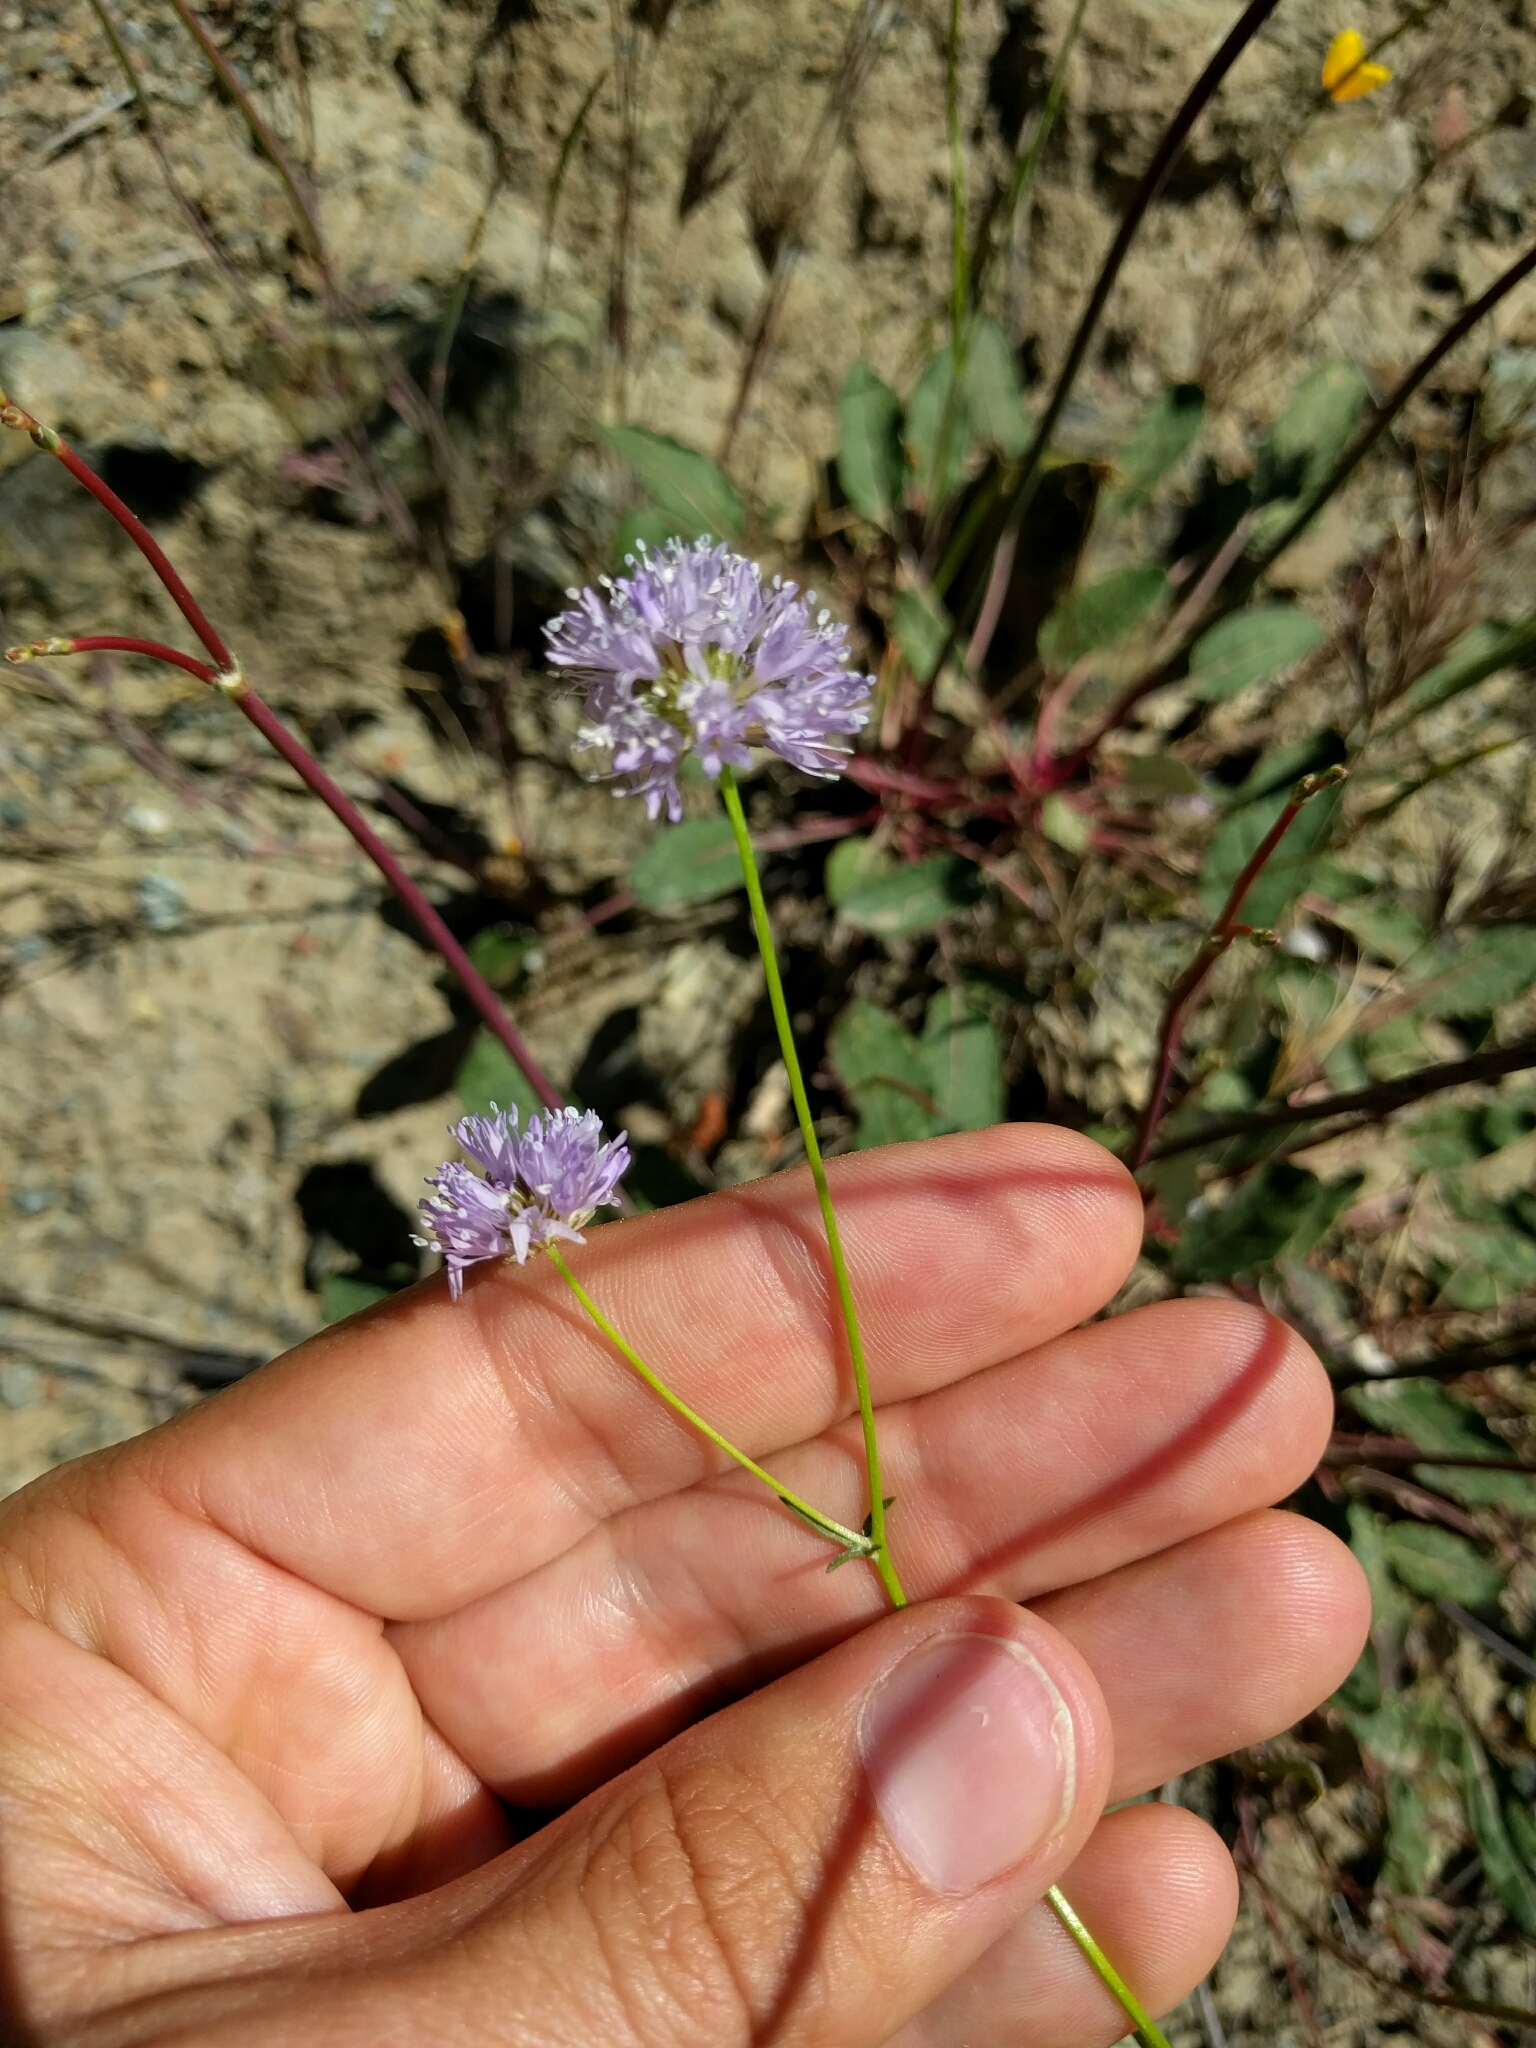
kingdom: Plantae
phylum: Tracheophyta
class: Magnoliopsida
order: Ericales
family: Polemoniaceae
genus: Gilia
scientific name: Gilia capitata
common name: Bluehead gilia
